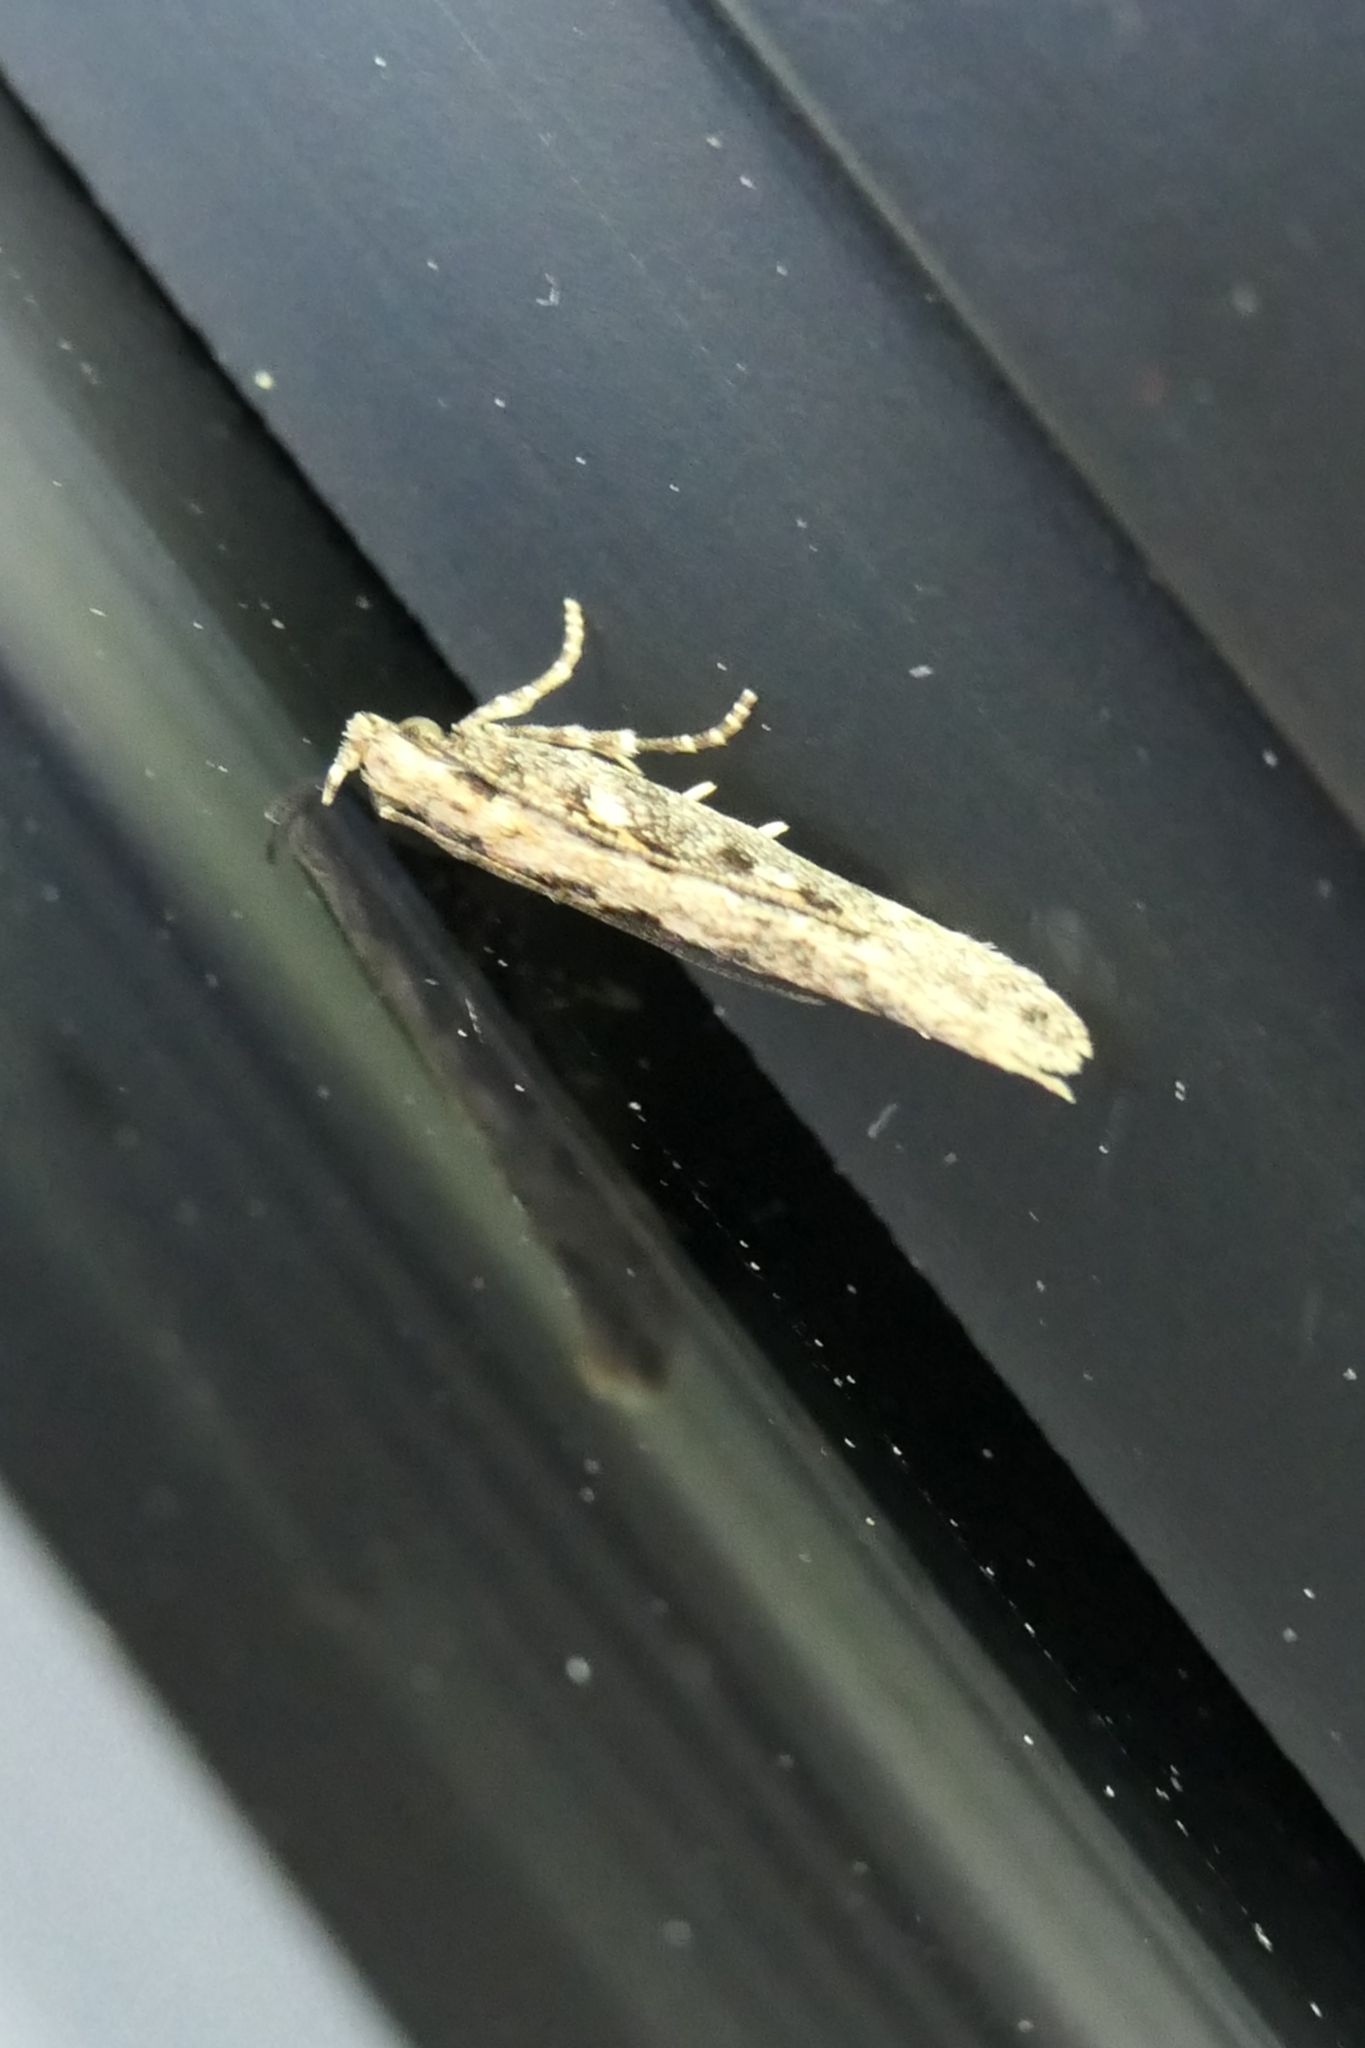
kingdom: Animalia
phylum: Arthropoda
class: Insecta
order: Lepidoptera
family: Gelechiidae
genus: Kiwaia
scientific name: Kiwaia brontophora
